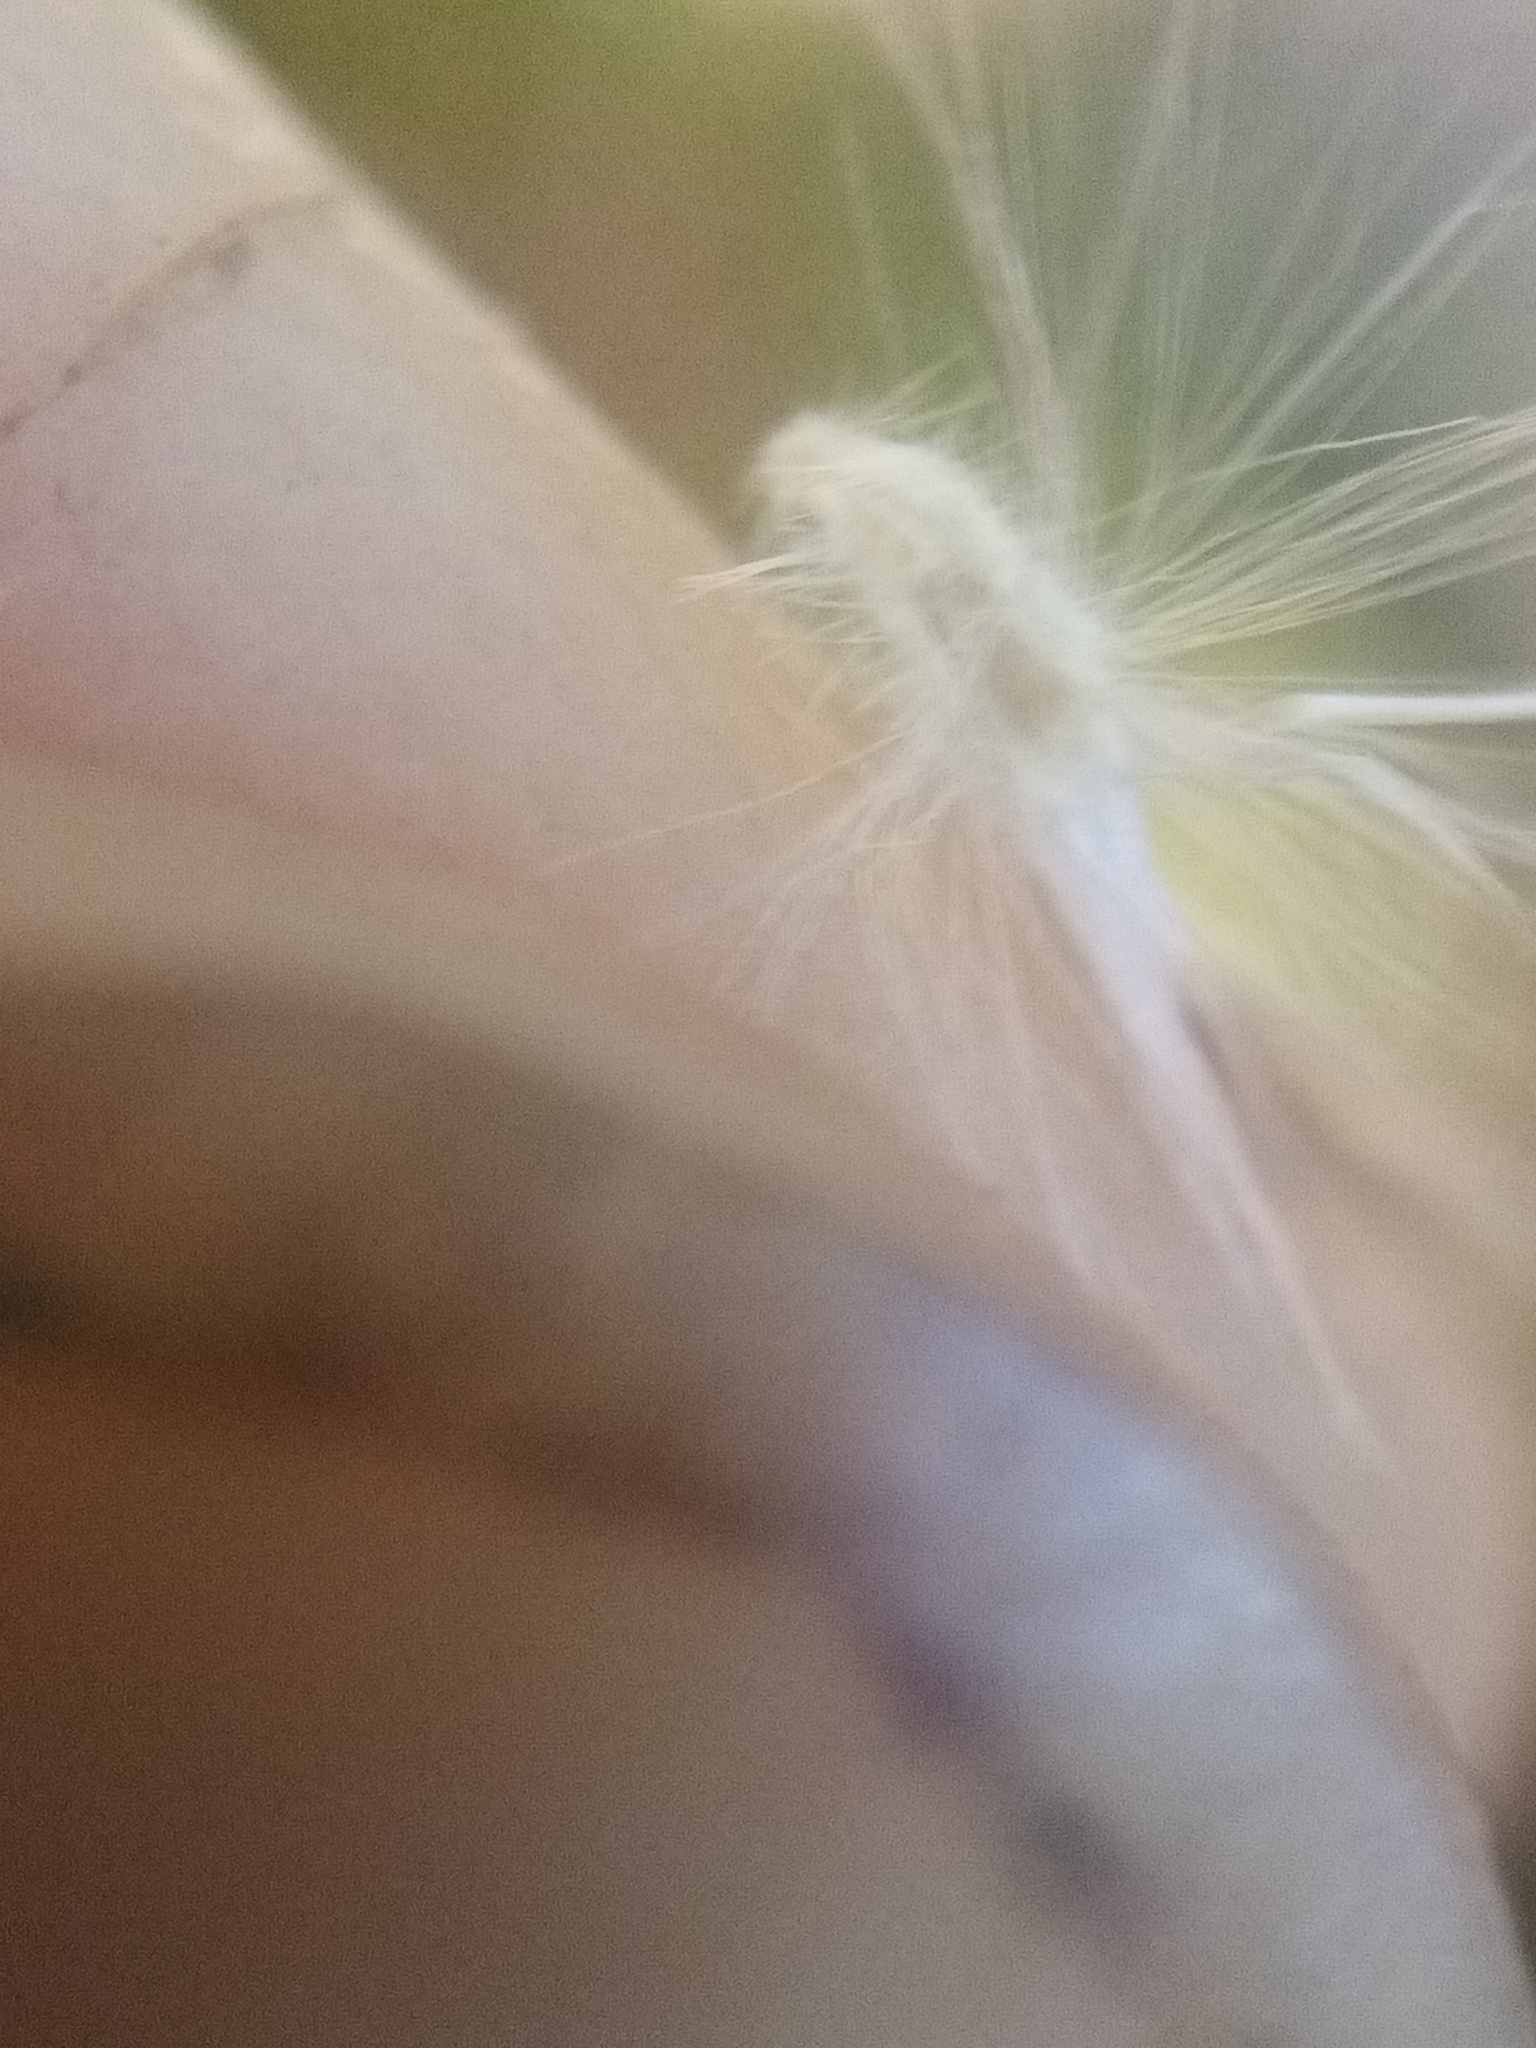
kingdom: Plantae
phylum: Tracheophyta
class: Liliopsida
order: Poales
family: Poaceae
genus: Rytidosperma
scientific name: Rytidosperma gracile
